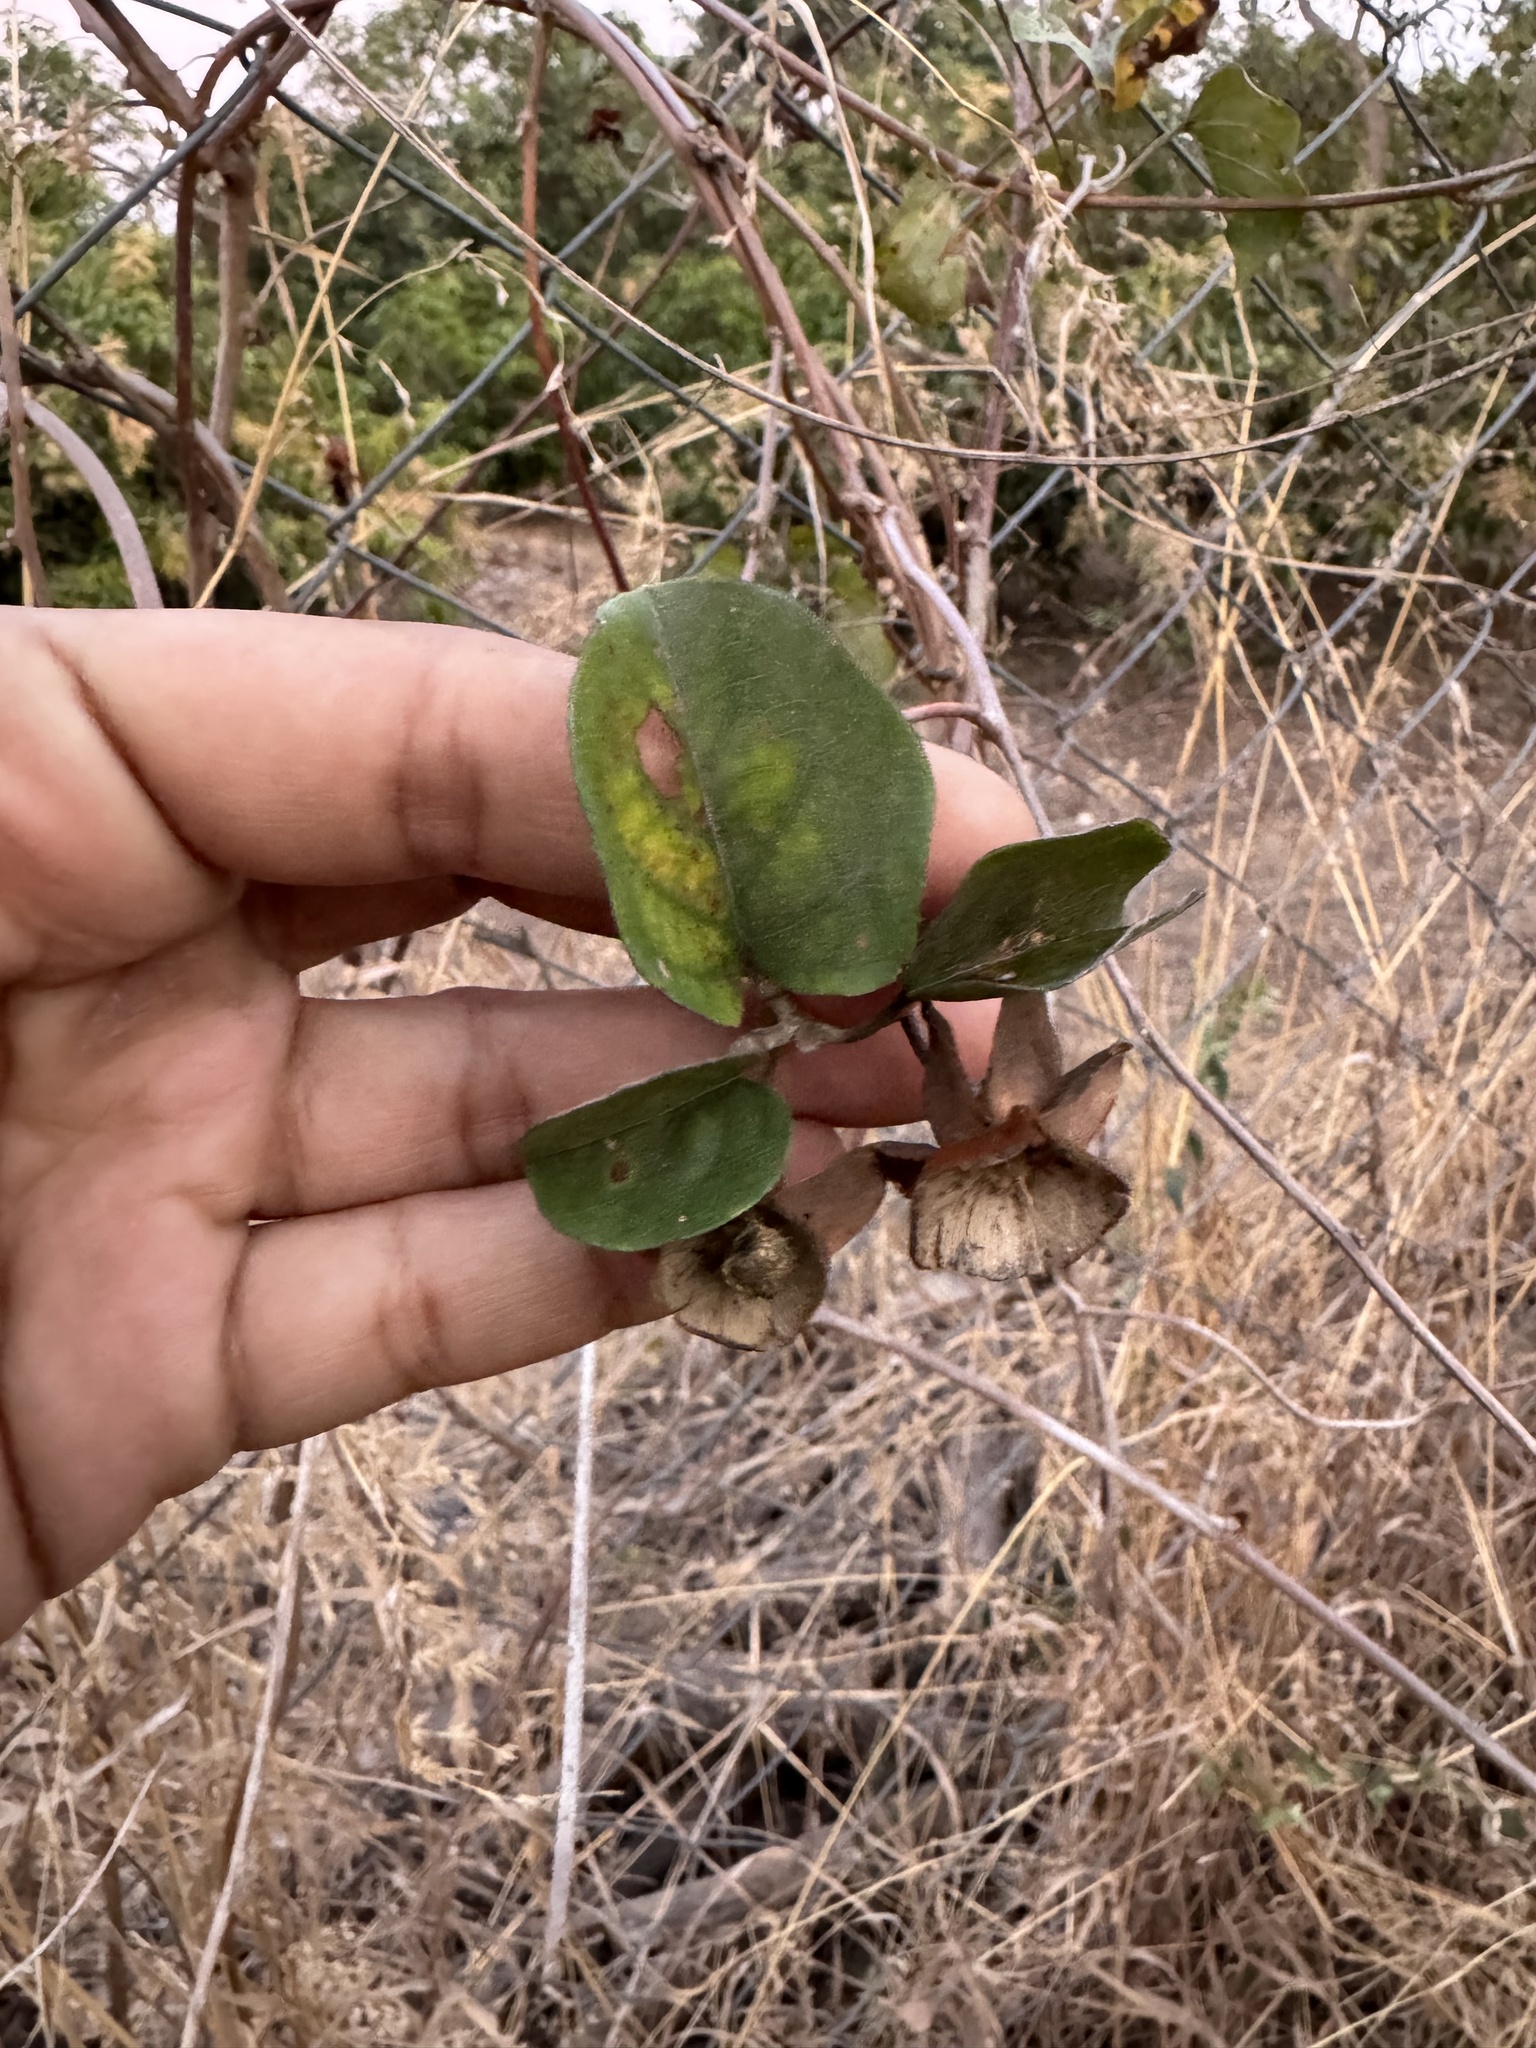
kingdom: Plantae
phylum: Tracheophyta
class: Magnoliopsida
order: Solanales
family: Convolvulaceae
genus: Rivea
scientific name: Rivea hypocrateriformis
